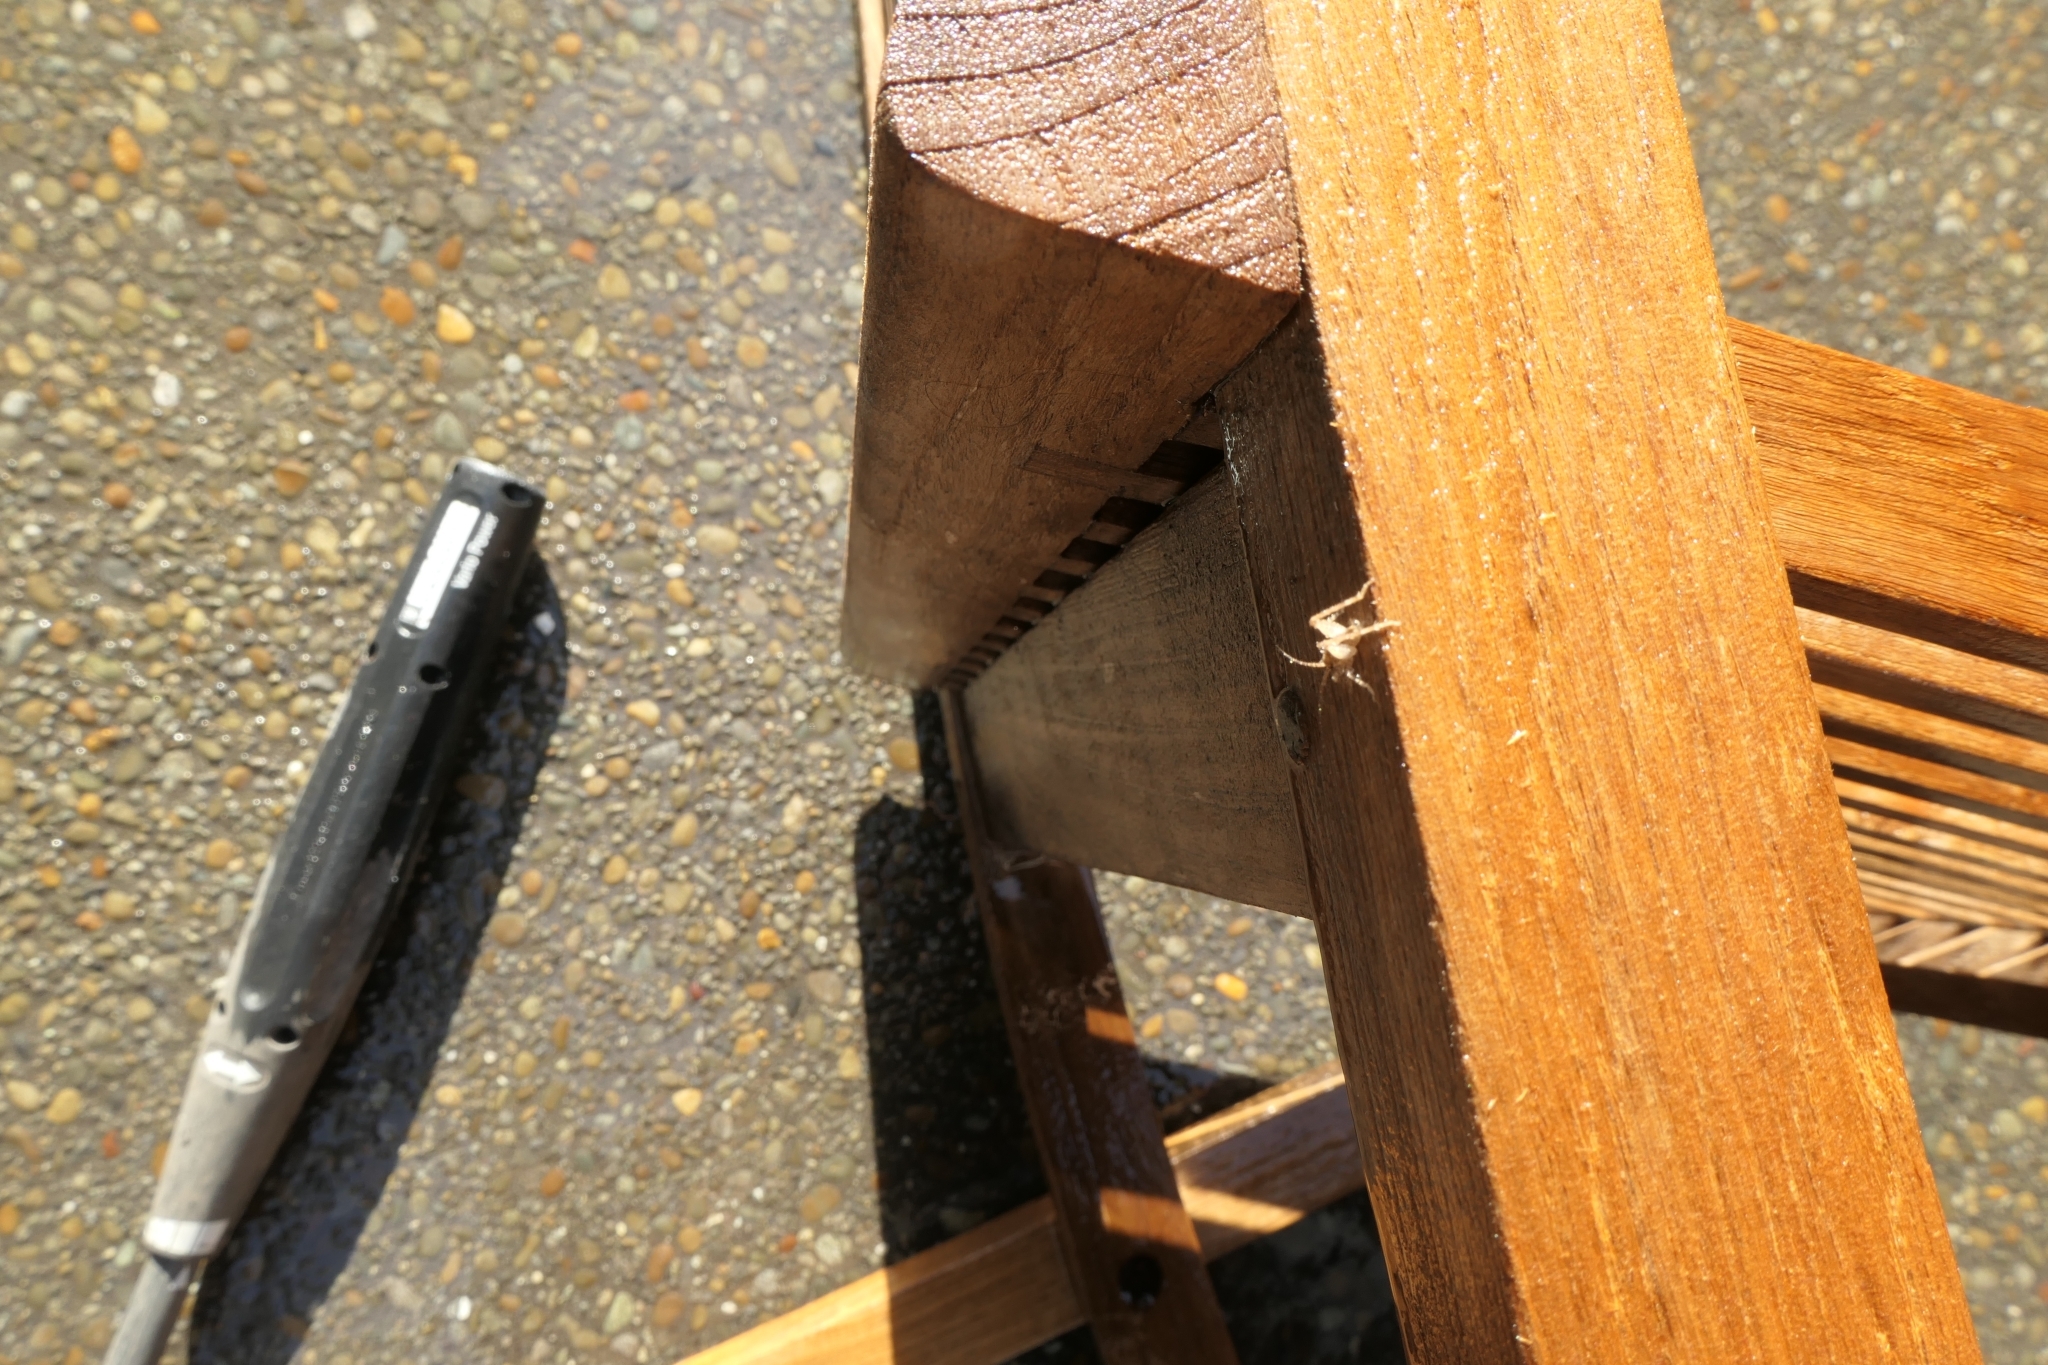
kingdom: Animalia
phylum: Arthropoda
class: Insecta
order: Orthoptera
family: Rhaphidophoridae
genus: Isoplectron
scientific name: Isoplectron armatum
